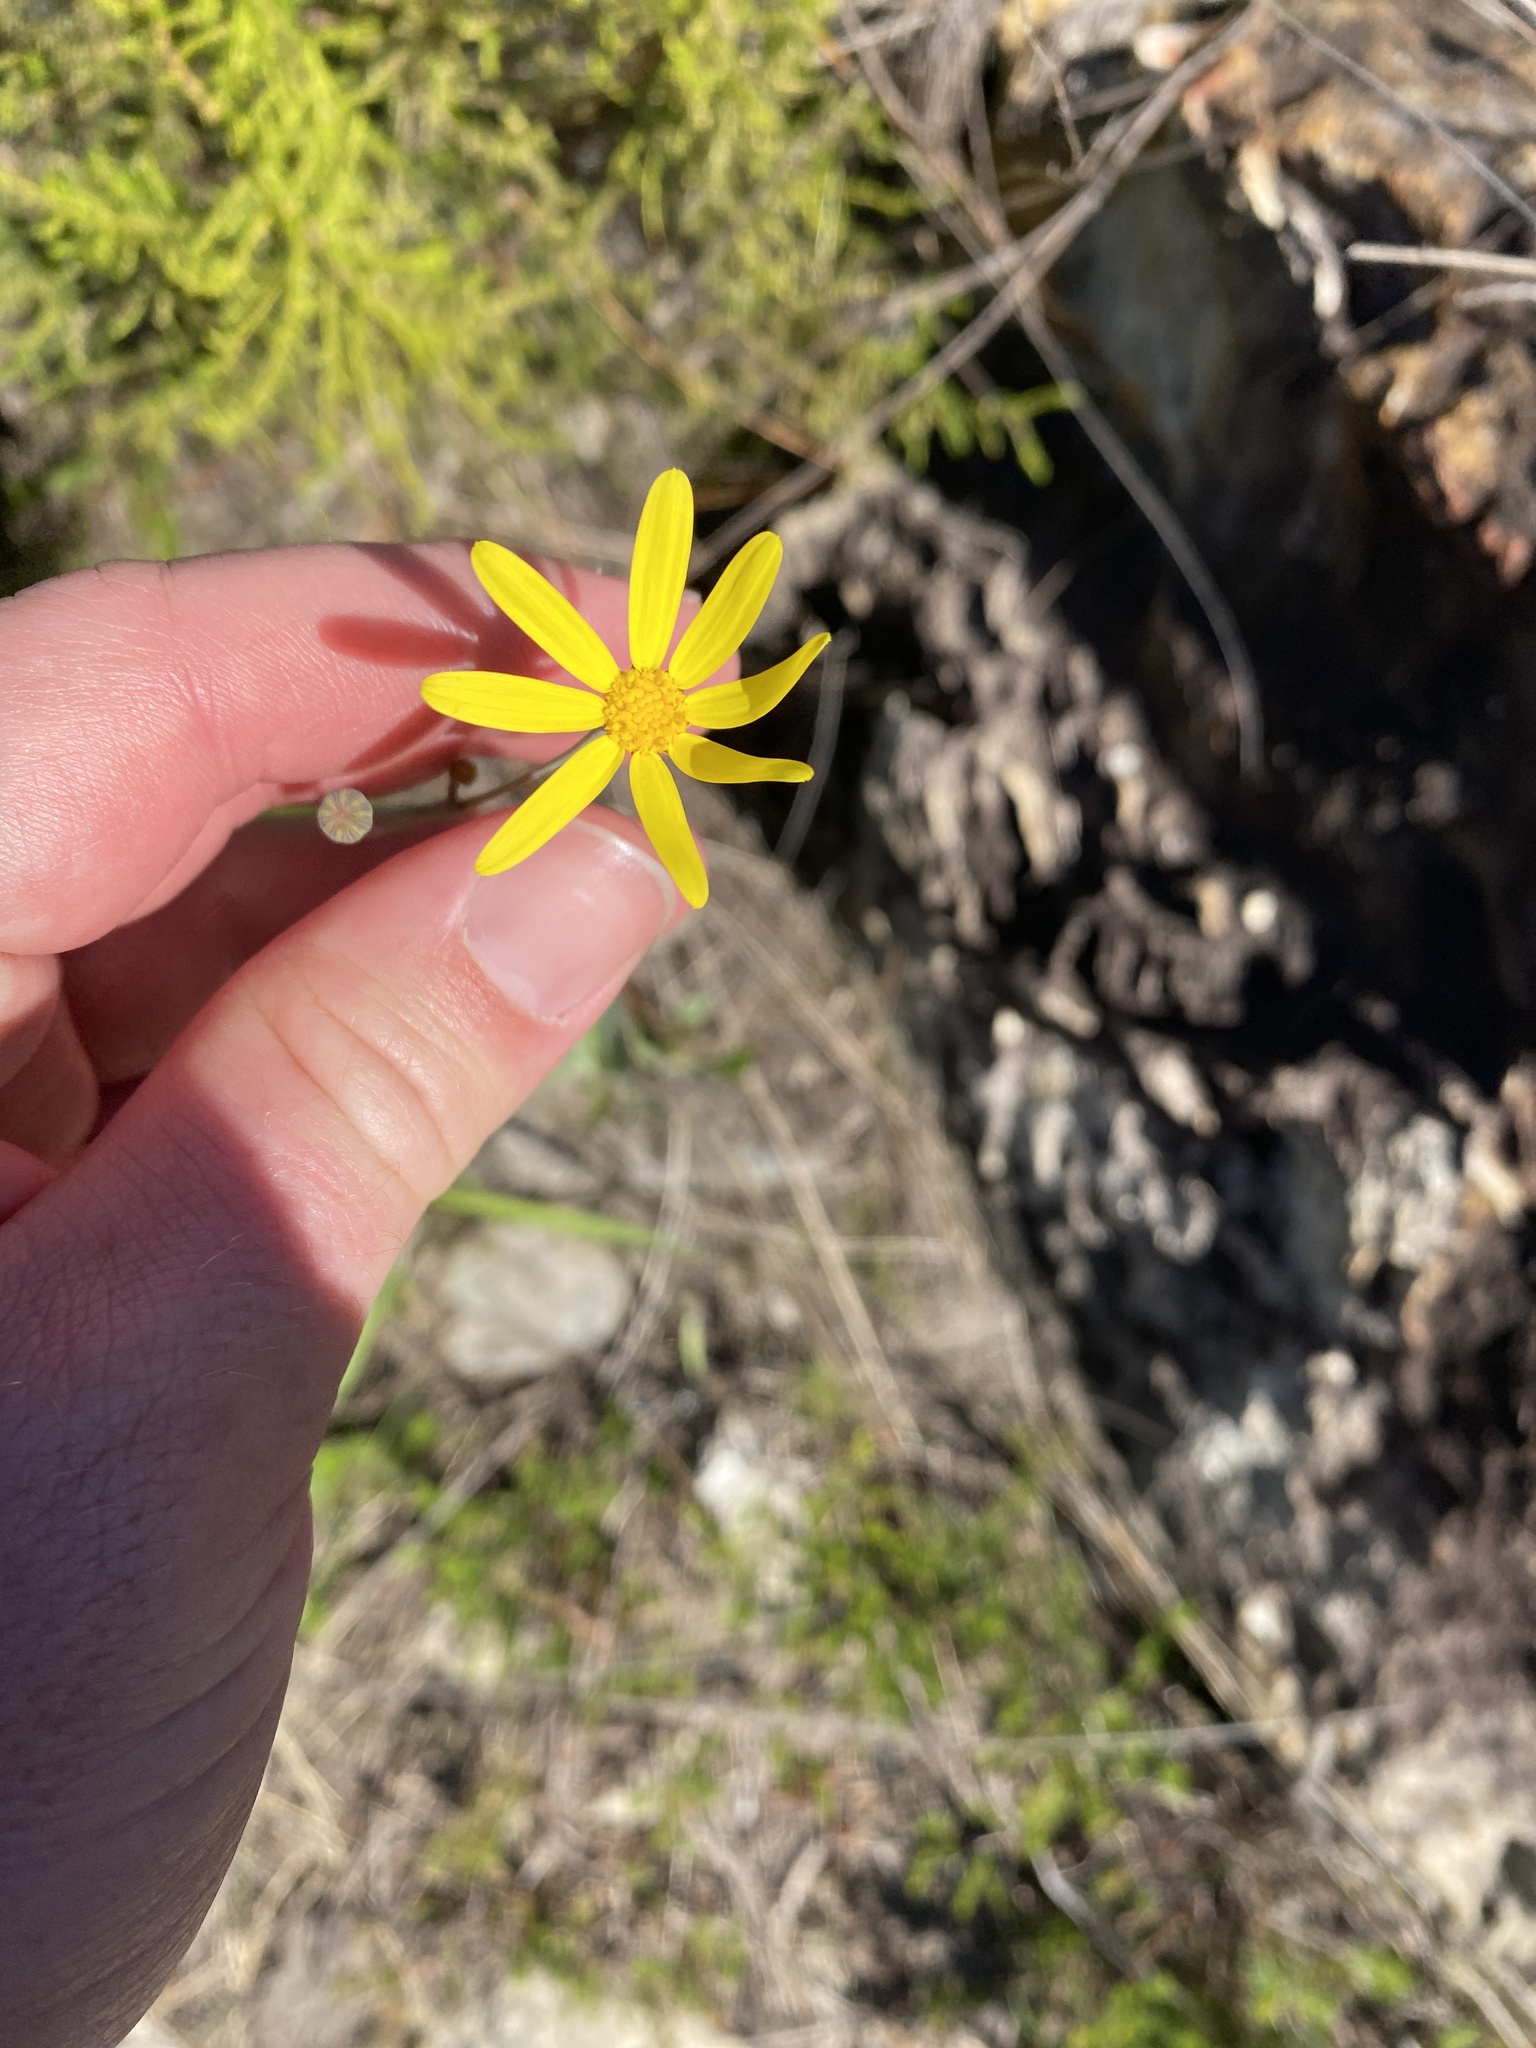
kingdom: Plantae
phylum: Tracheophyta
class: Magnoliopsida
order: Asterales
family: Asteraceae
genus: Othonna
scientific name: Othonna quinquedentata
